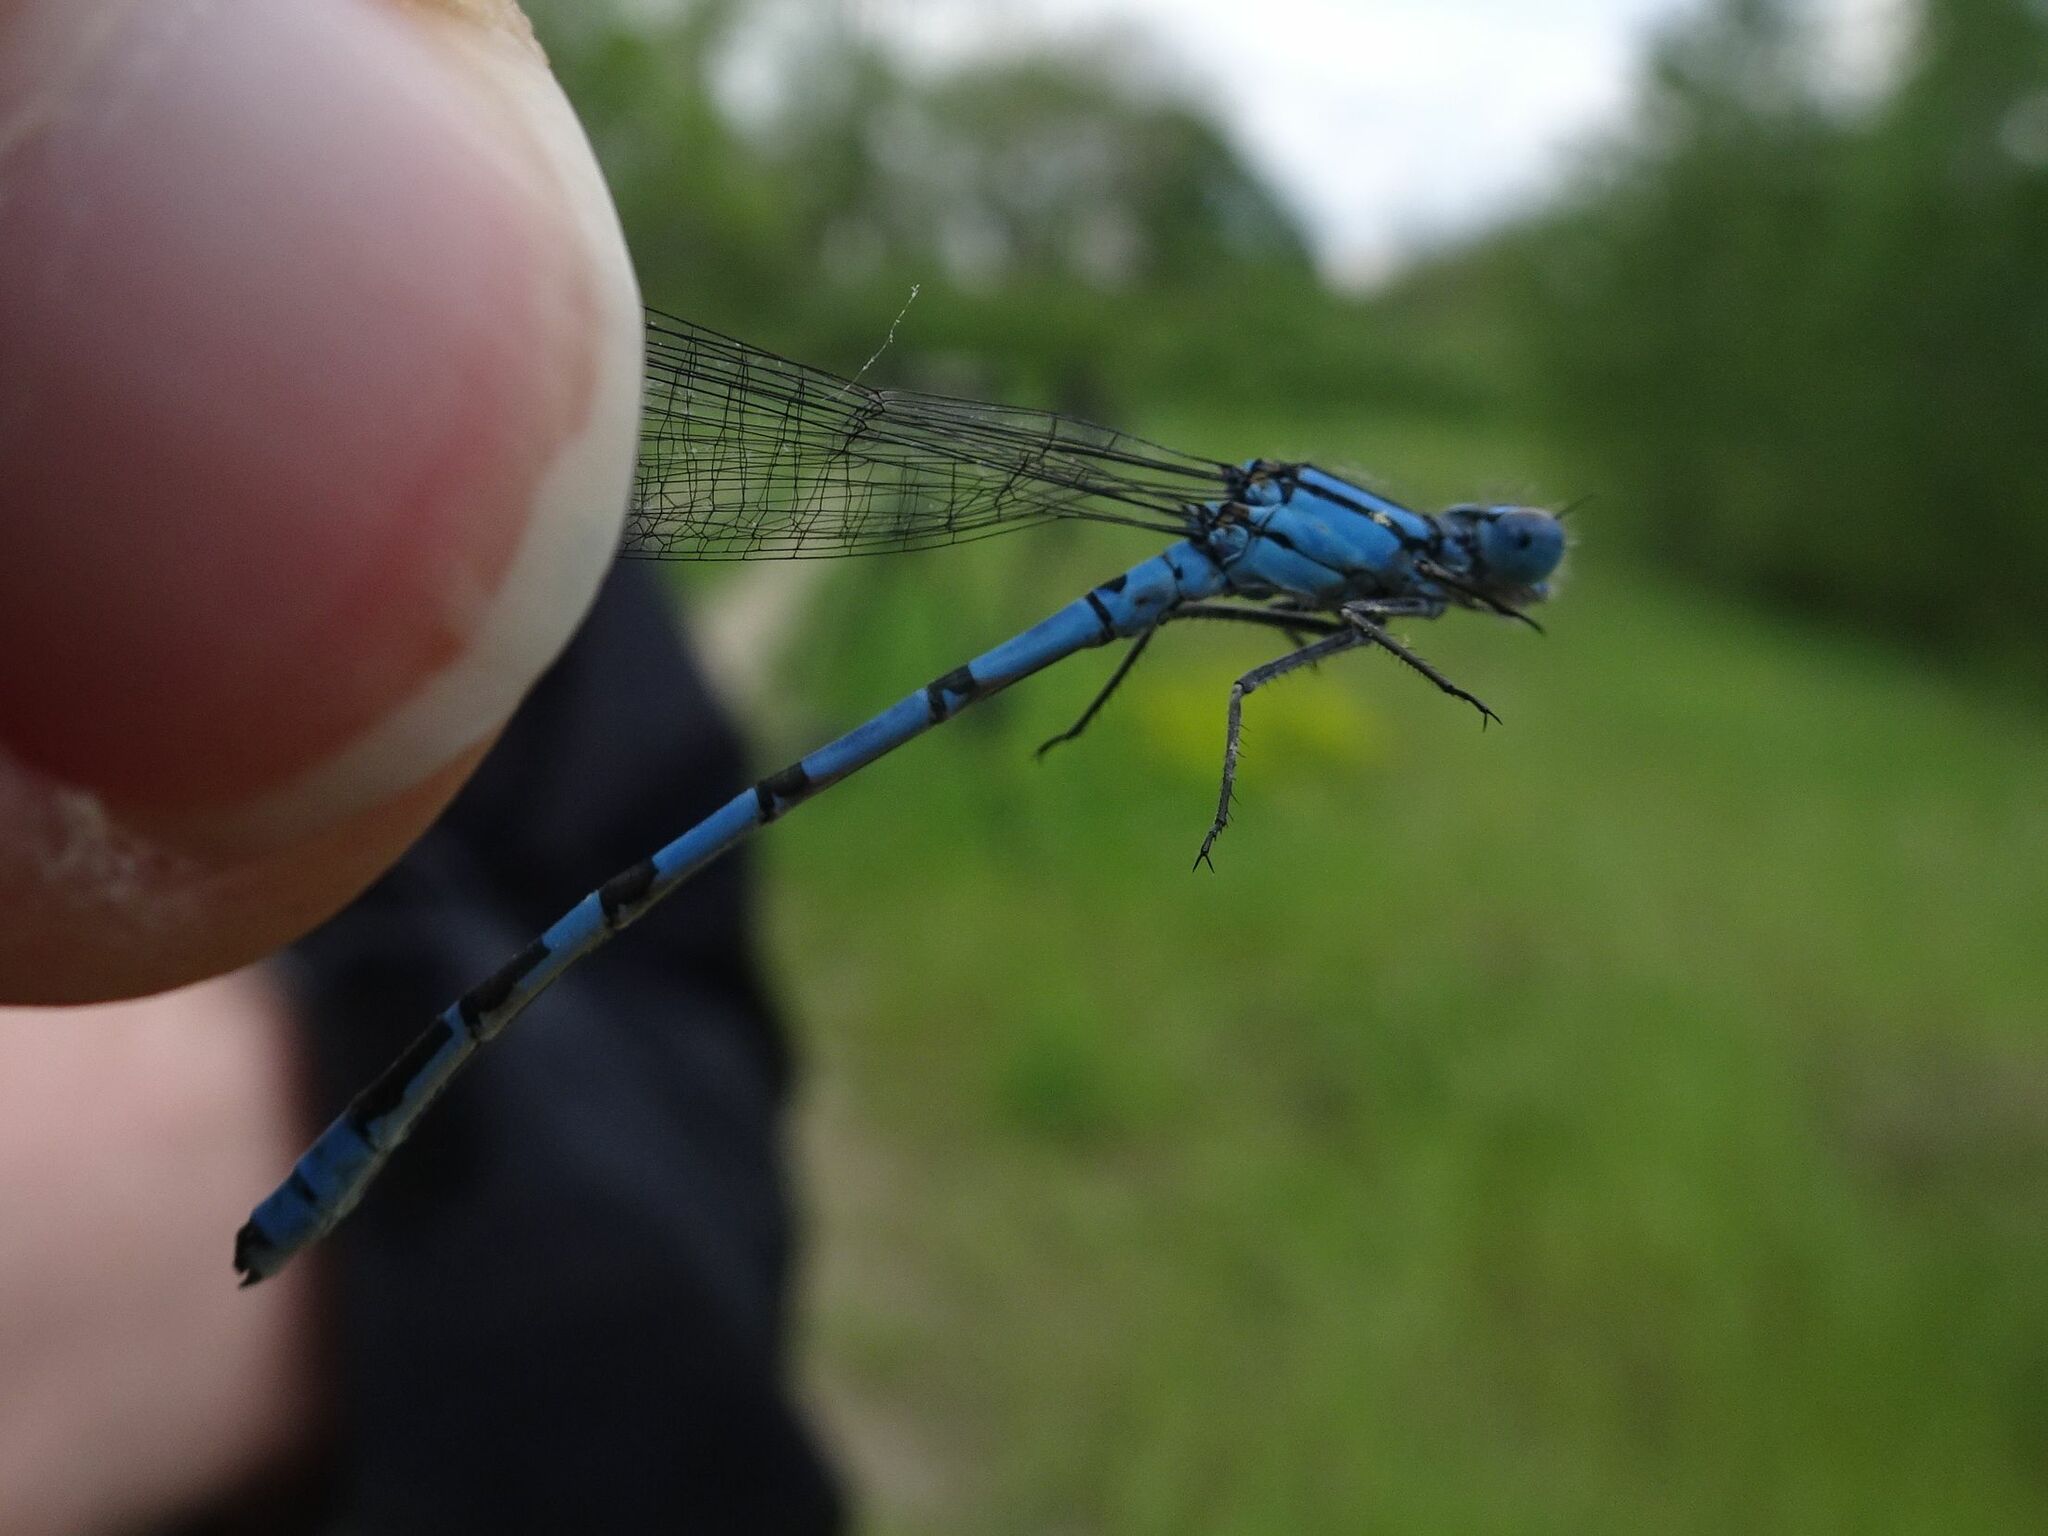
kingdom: Animalia
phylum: Arthropoda
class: Insecta
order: Odonata
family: Coenagrionidae
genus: Enallagma
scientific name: Enallagma cyathigerum
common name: Common blue damselfly
